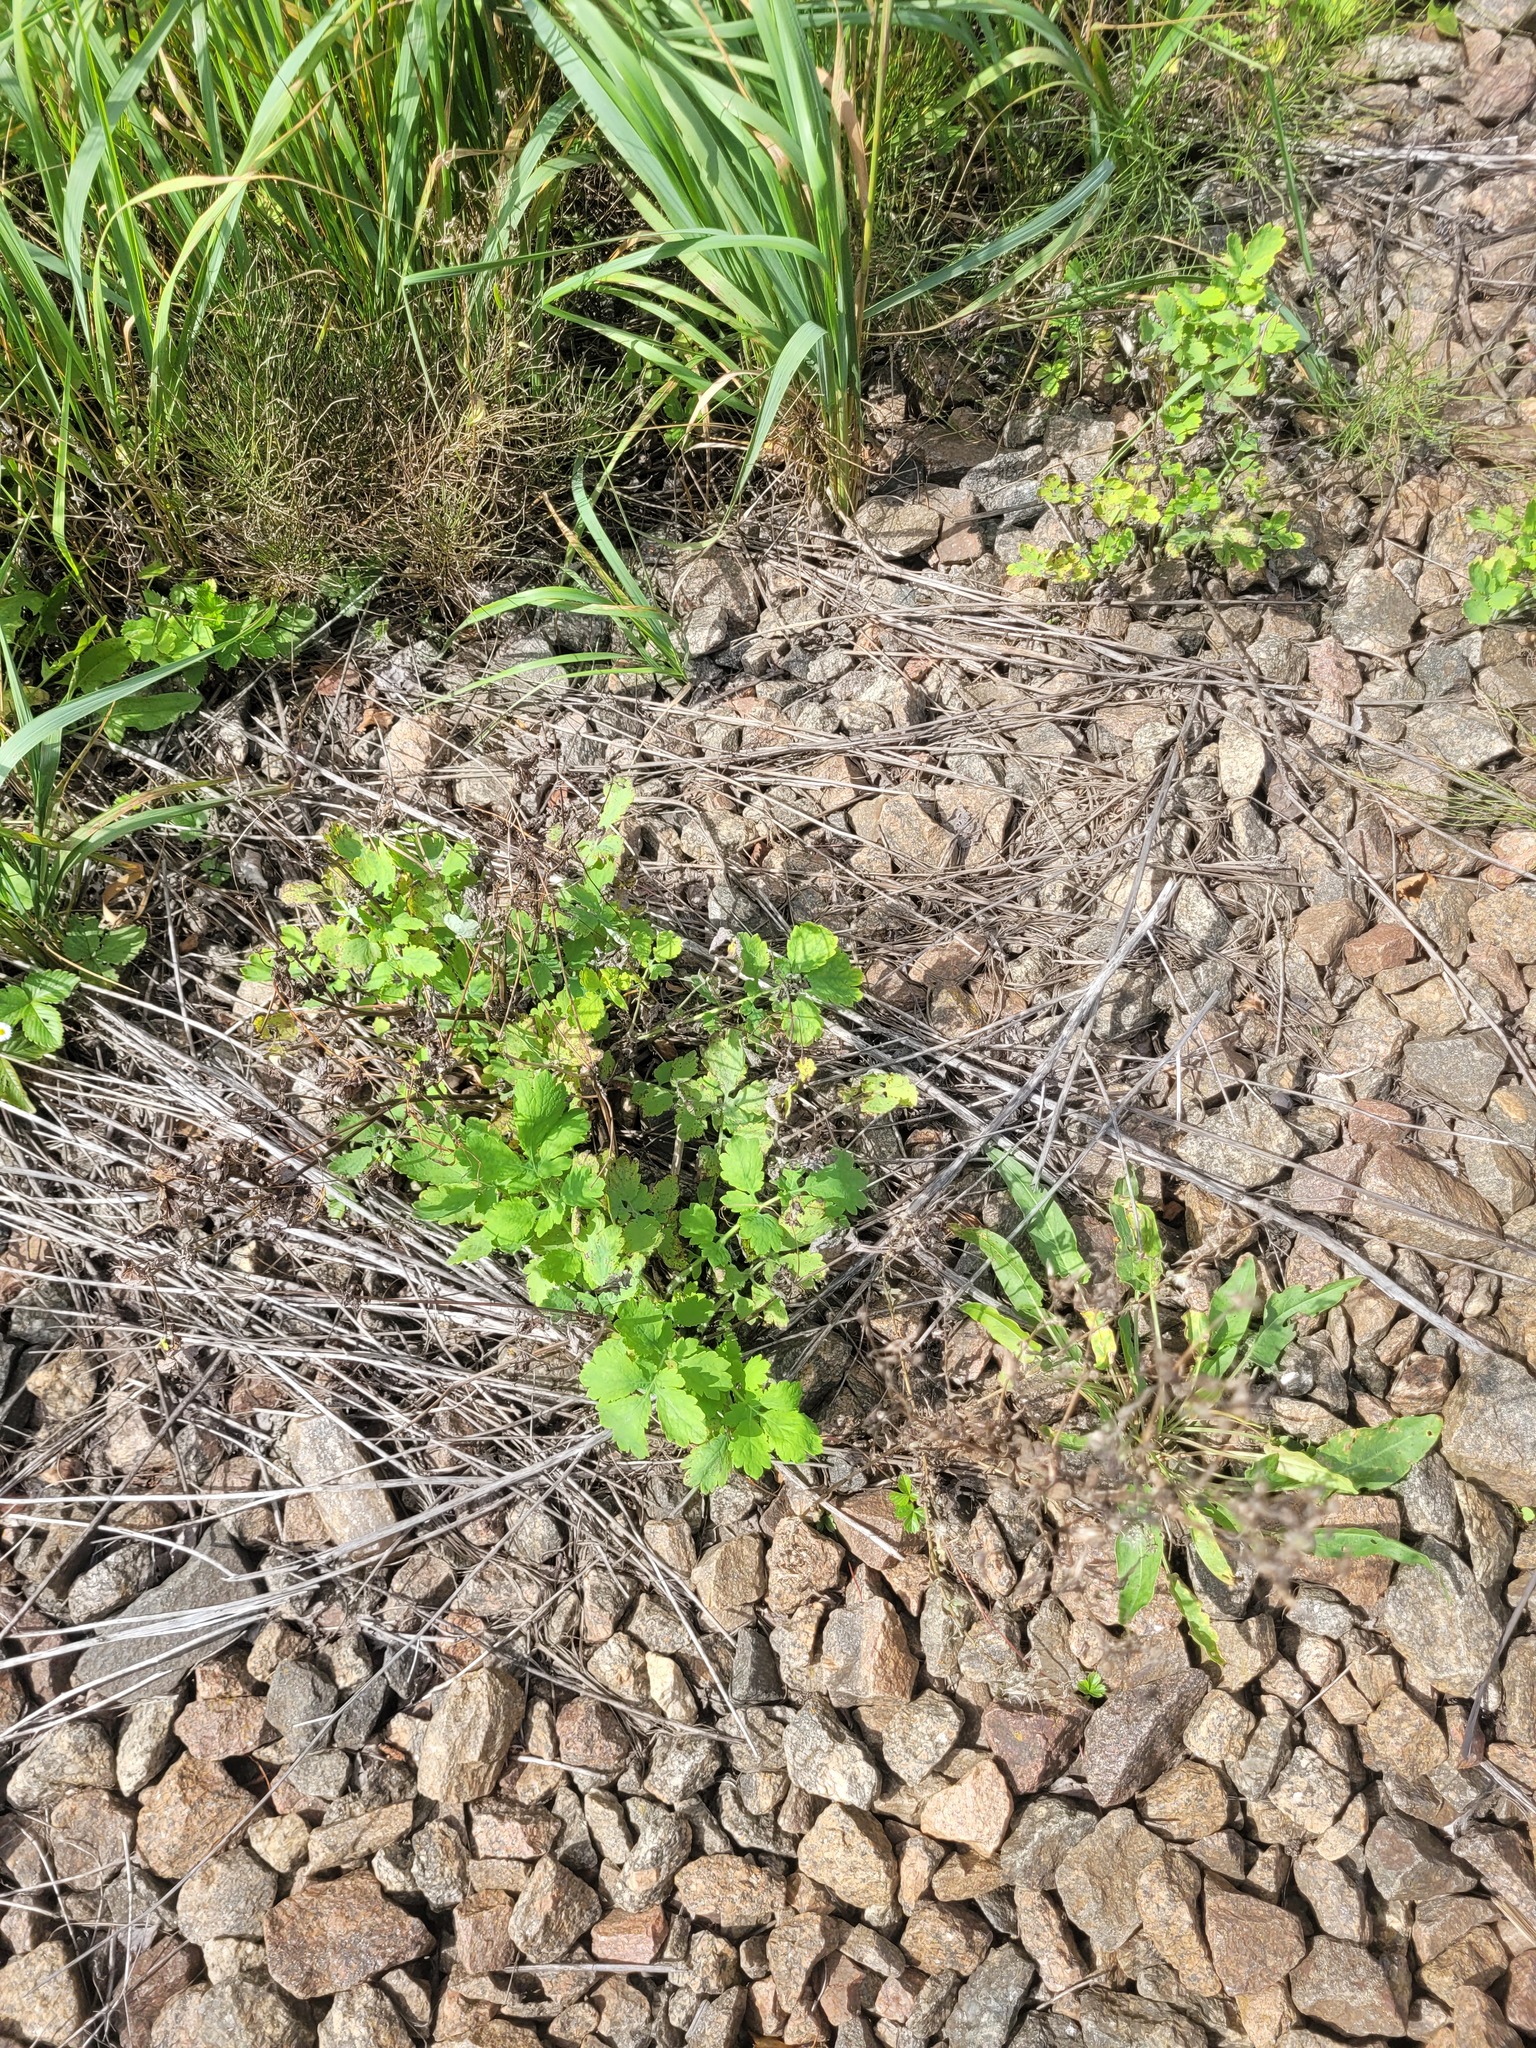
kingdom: Plantae
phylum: Tracheophyta
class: Magnoliopsida
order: Ranunculales
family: Papaveraceae
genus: Chelidonium
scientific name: Chelidonium majus
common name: Greater celandine
